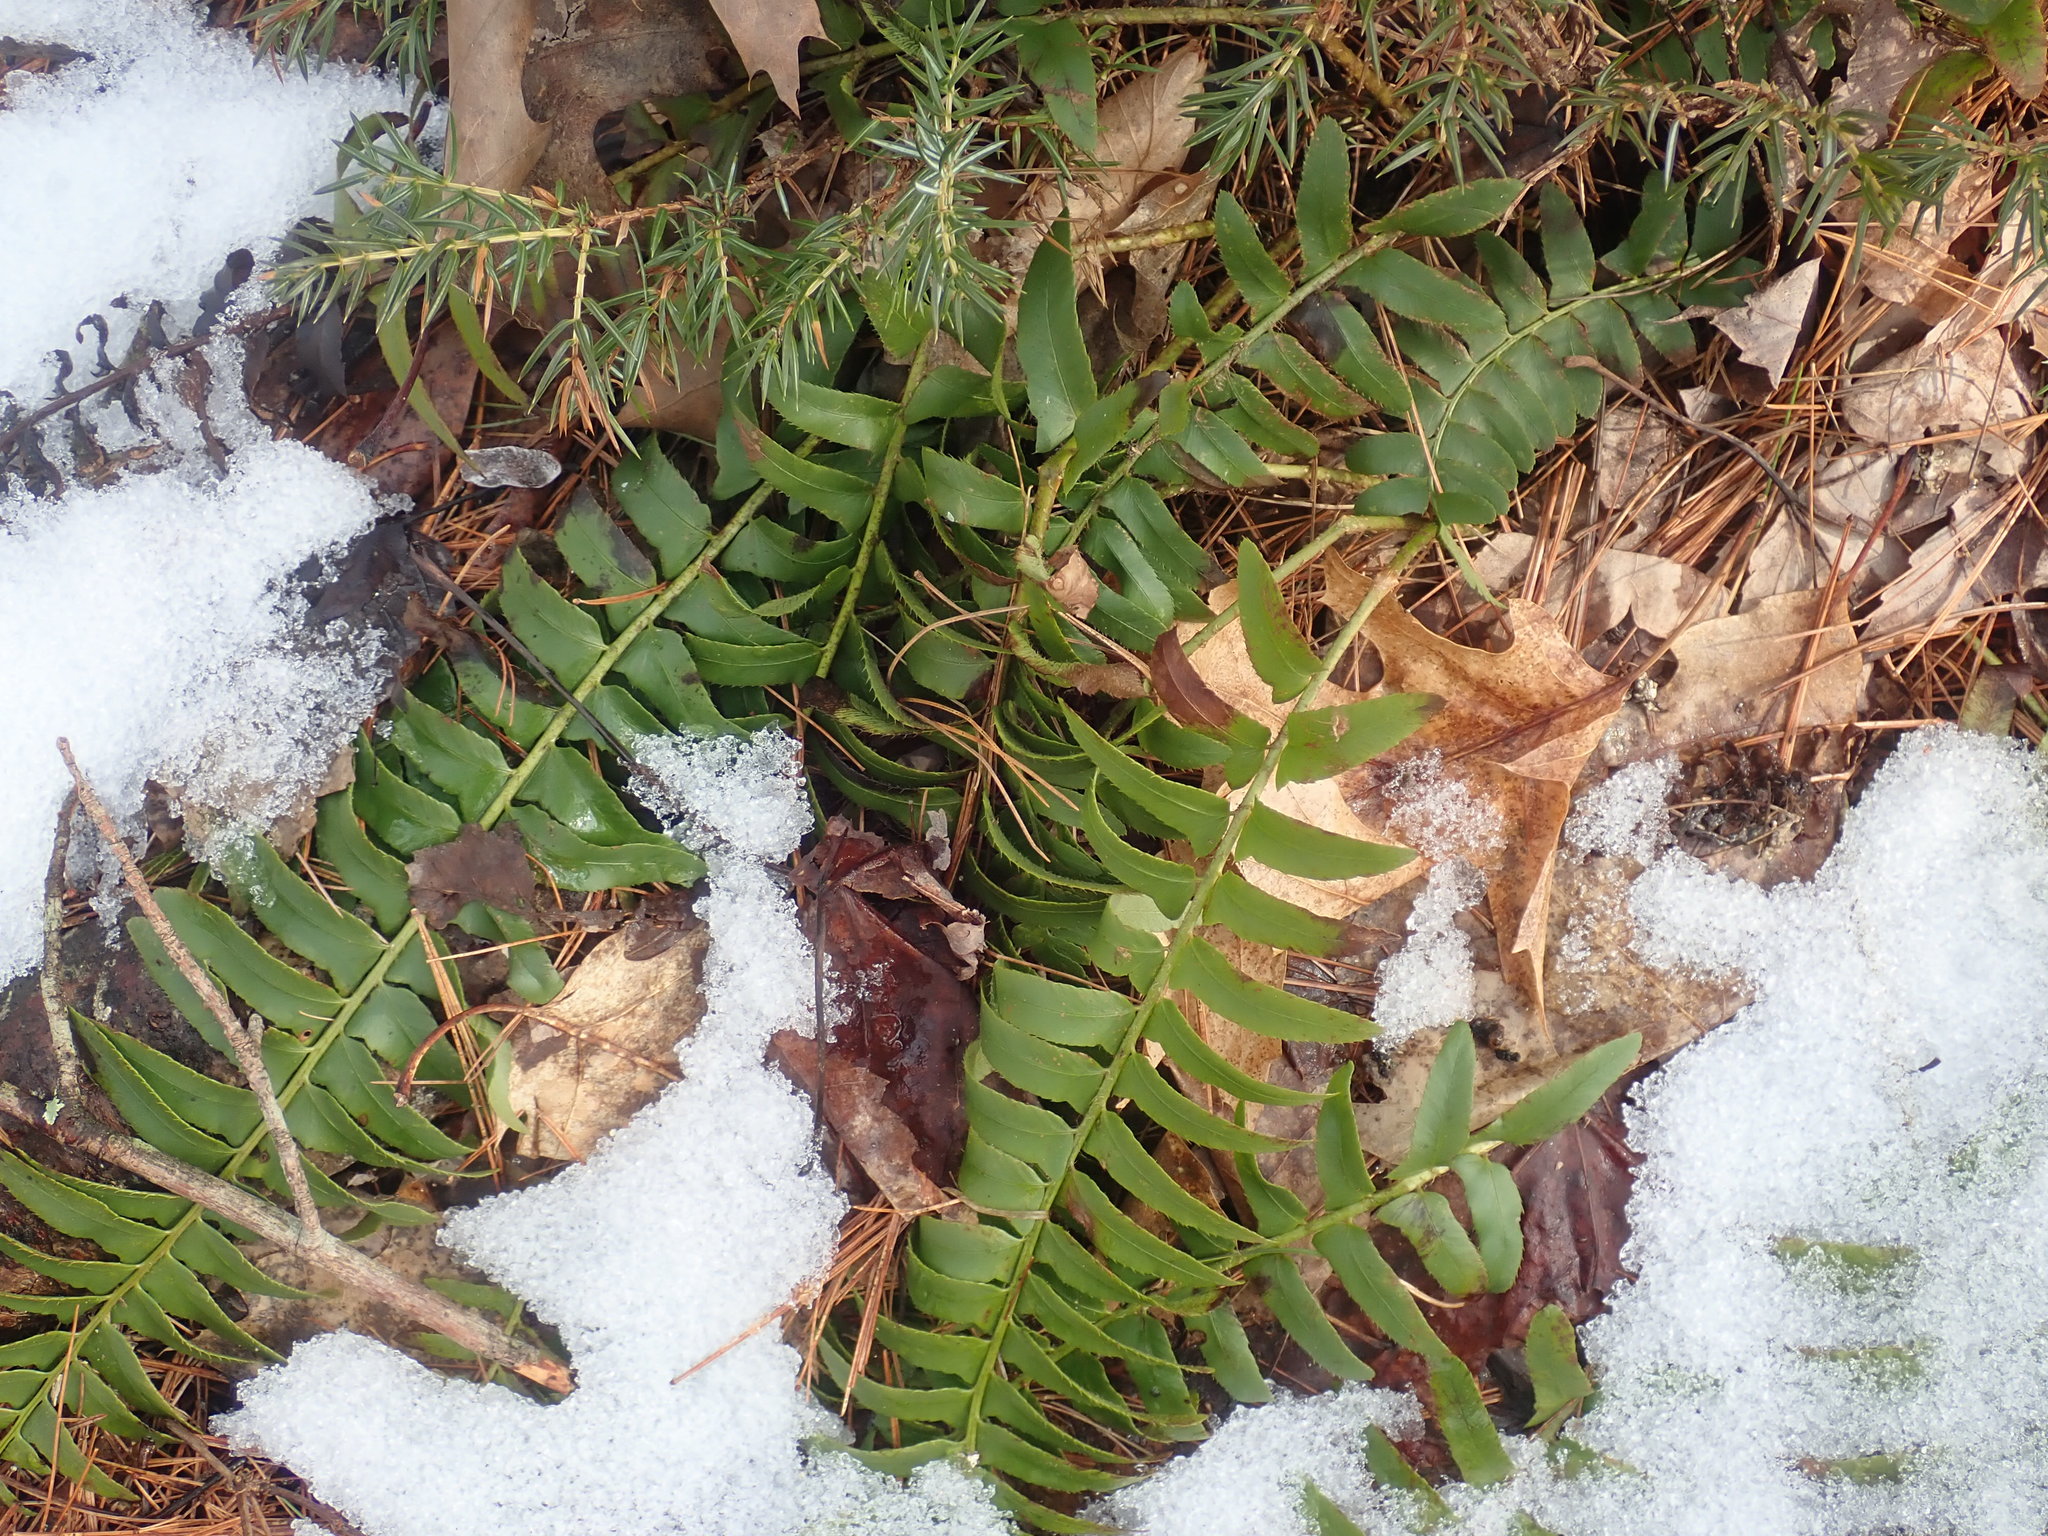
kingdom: Plantae
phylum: Tracheophyta
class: Polypodiopsida
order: Polypodiales
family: Dryopteridaceae
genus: Polystichum
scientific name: Polystichum acrostichoides
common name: Christmas fern
